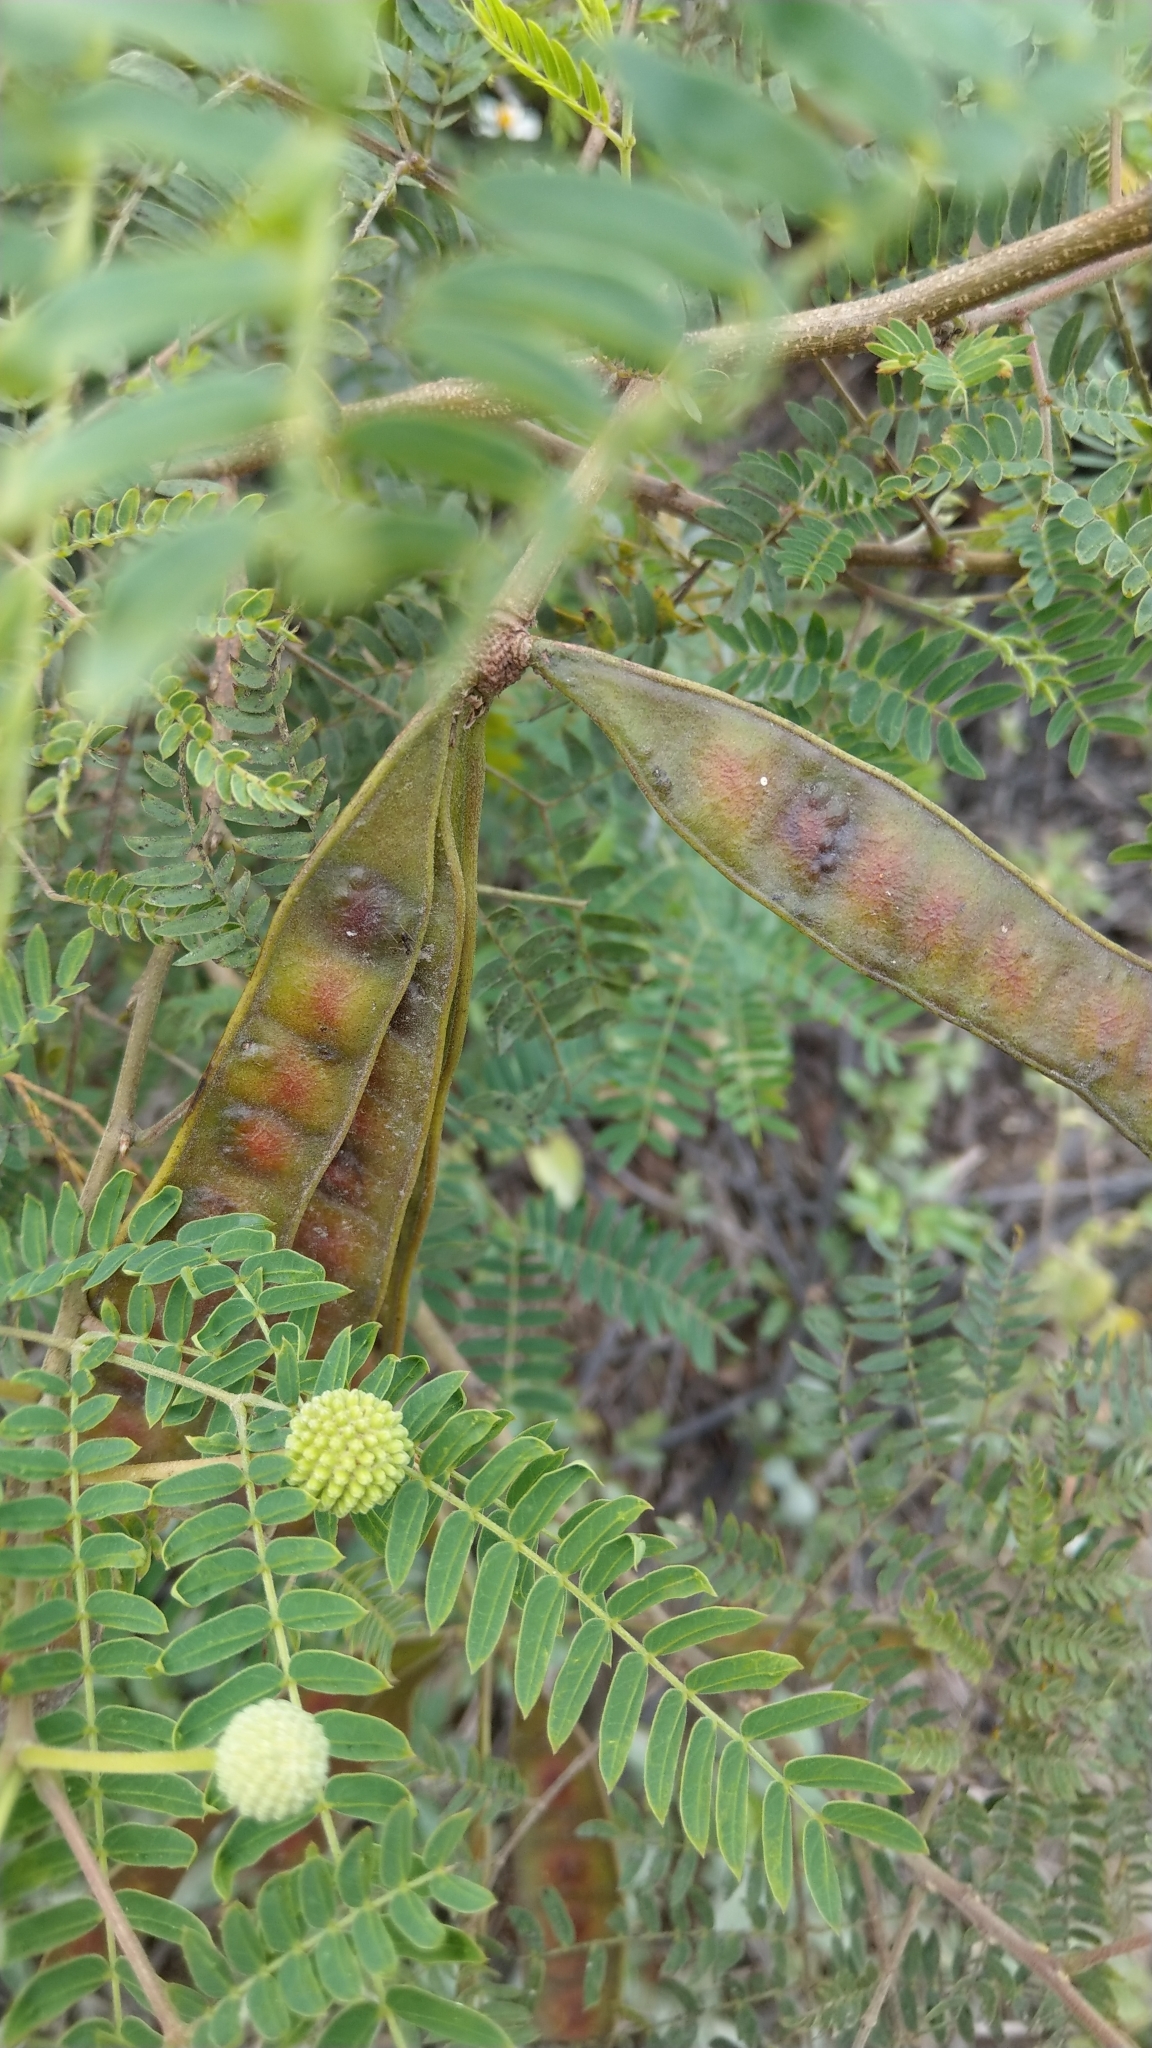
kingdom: Plantae
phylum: Tracheophyta
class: Magnoliopsida
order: Fabales
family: Fabaceae
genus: Leucaena
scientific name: Leucaena leucocephala
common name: White leadtree
